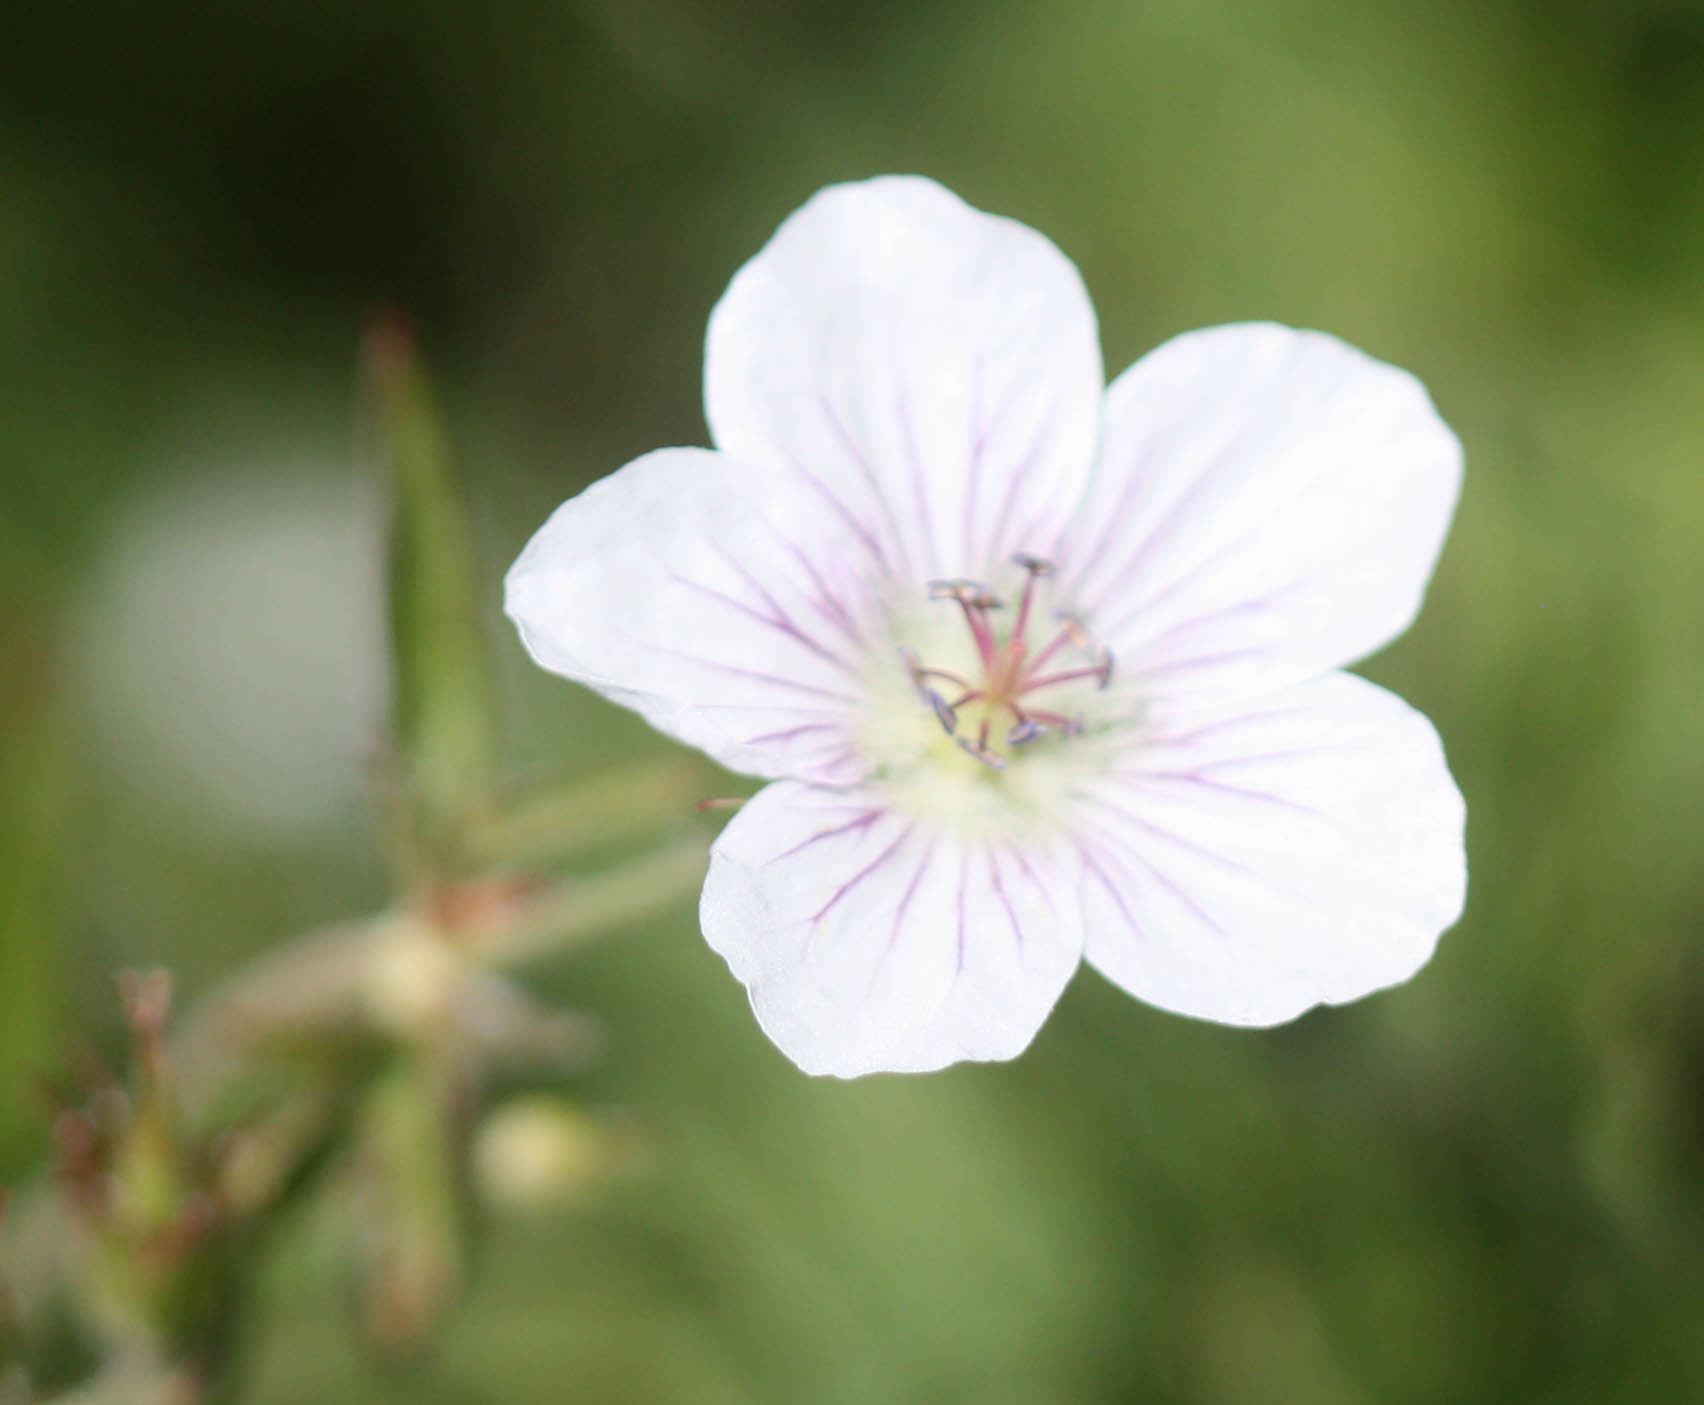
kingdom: Plantae
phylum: Tracheophyta
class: Magnoliopsida
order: Geraniales
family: Geraniaceae
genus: Geranium
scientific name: Geranium richardsonii
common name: Richardson's crane's-bill
